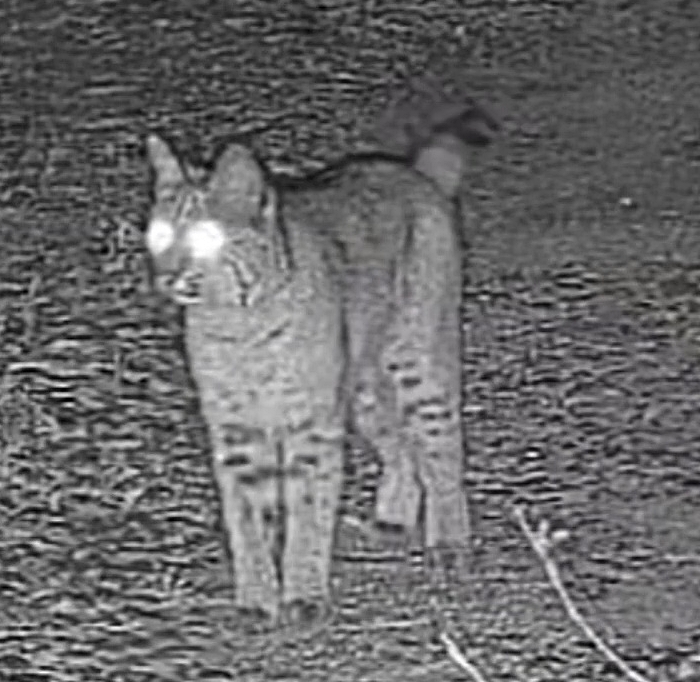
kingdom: Animalia
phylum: Chordata
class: Mammalia
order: Carnivora
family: Felidae
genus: Lynx
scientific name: Lynx rufus
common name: Bobcat
